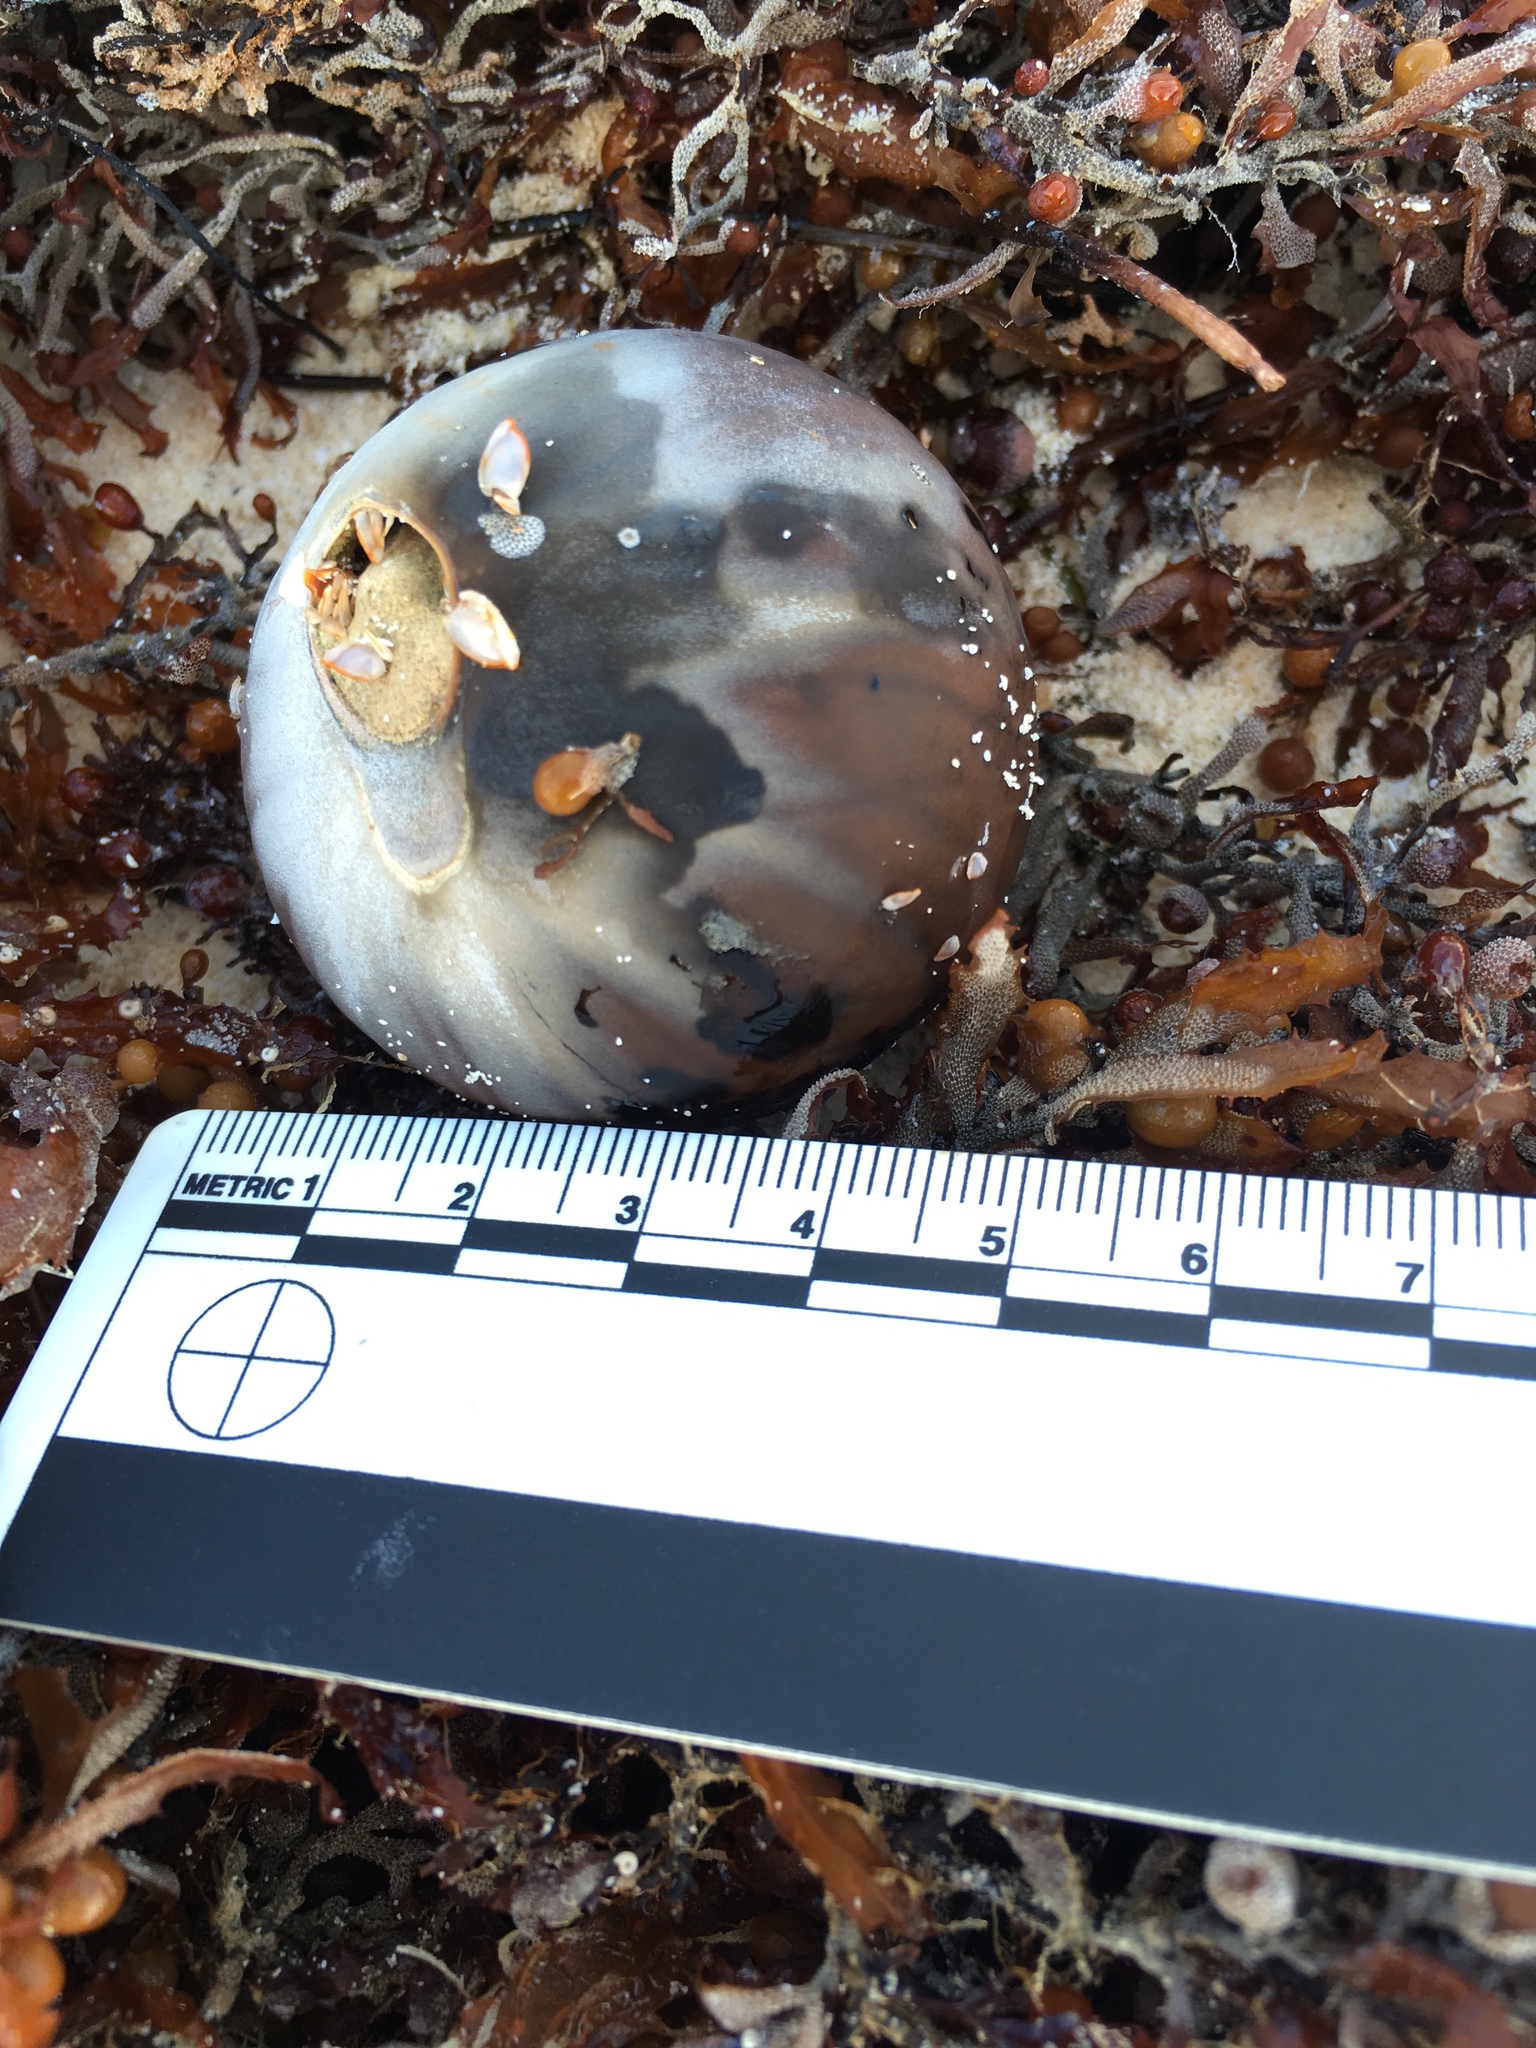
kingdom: Plantae
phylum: Tracheophyta
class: Liliopsida
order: Arecales
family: Arecaceae
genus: Manicaria
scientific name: Manicaria saccifera
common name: Sea coconut
